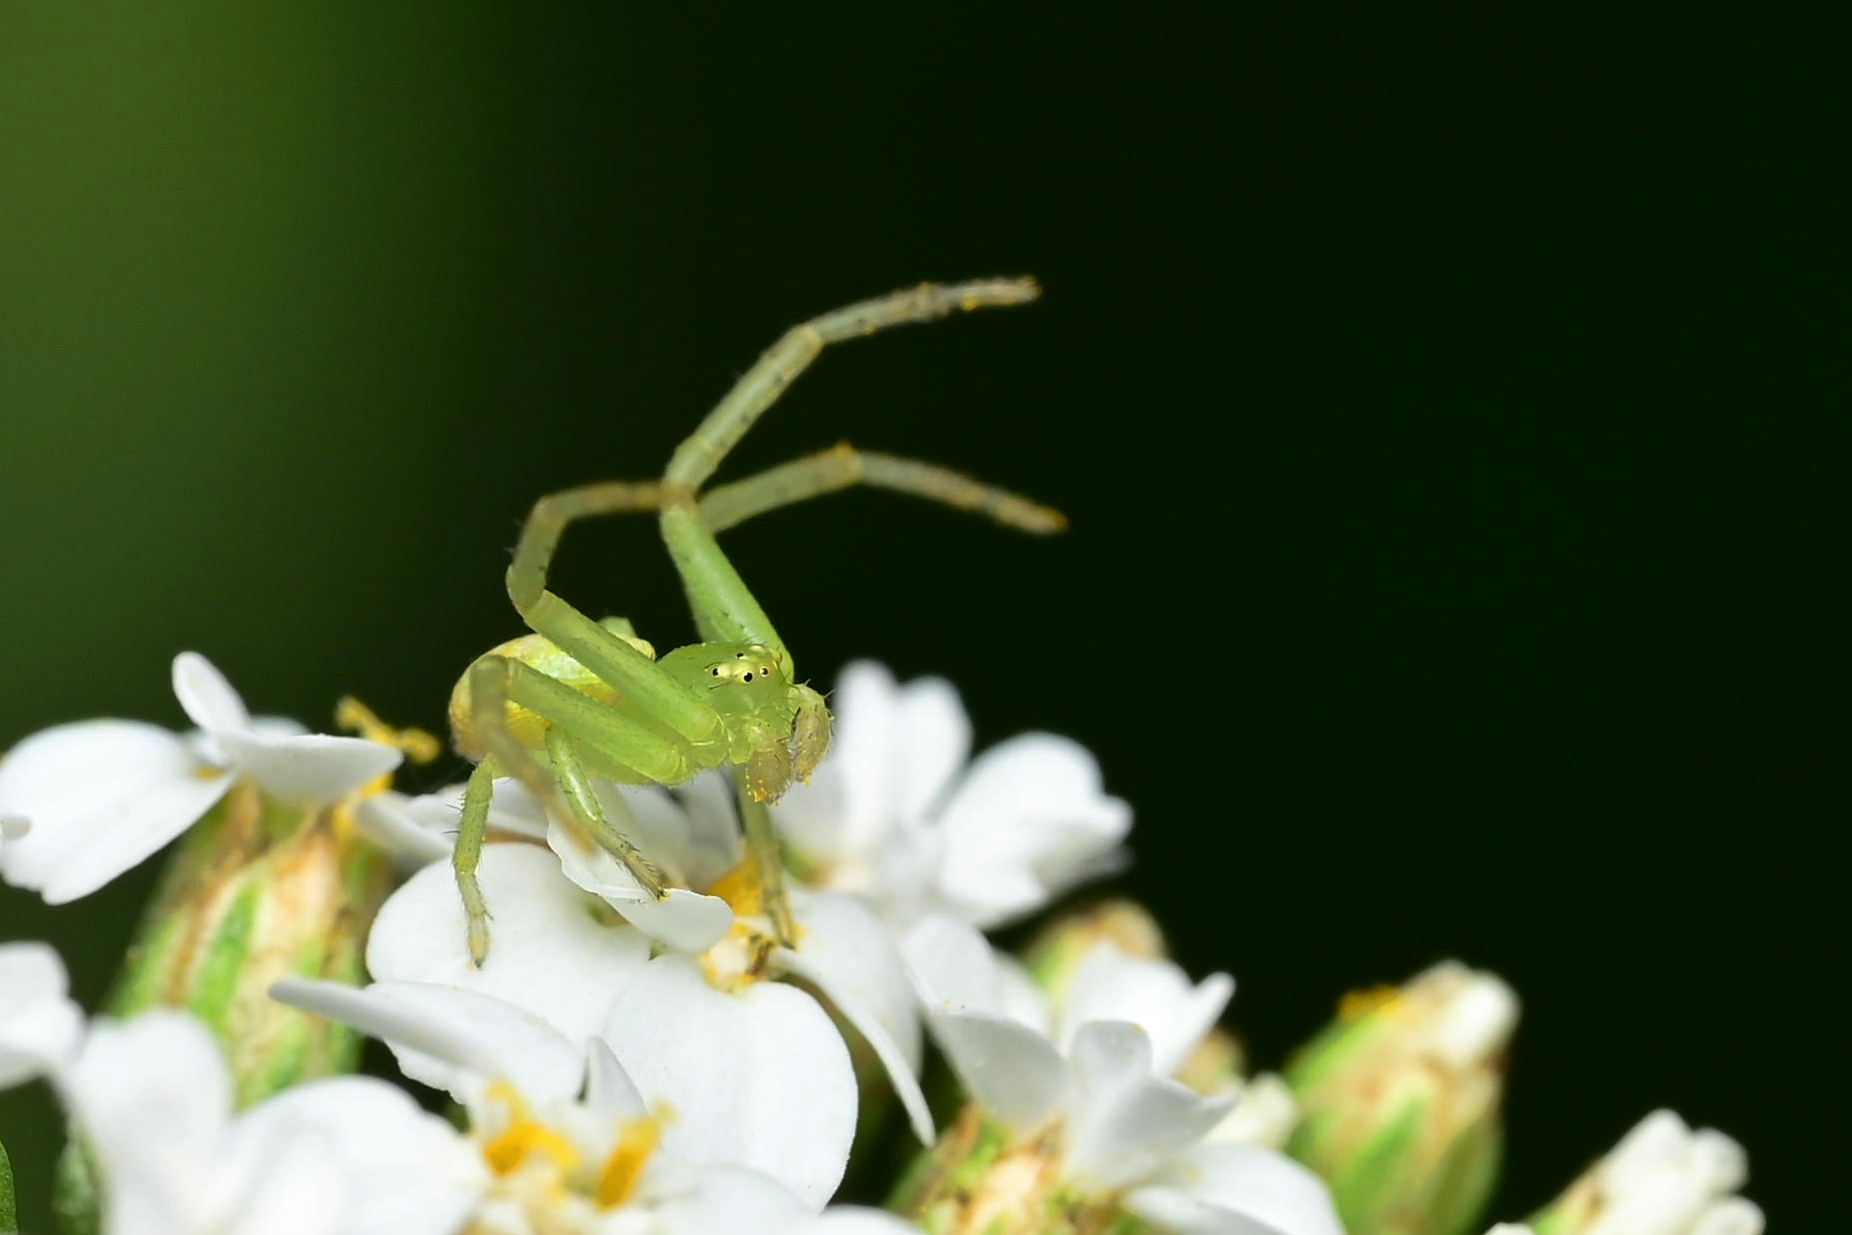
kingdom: Animalia
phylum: Arthropoda
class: Arachnida
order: Araneae
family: Thomisidae
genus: Ebrechtella
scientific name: Ebrechtella tricuspidata
